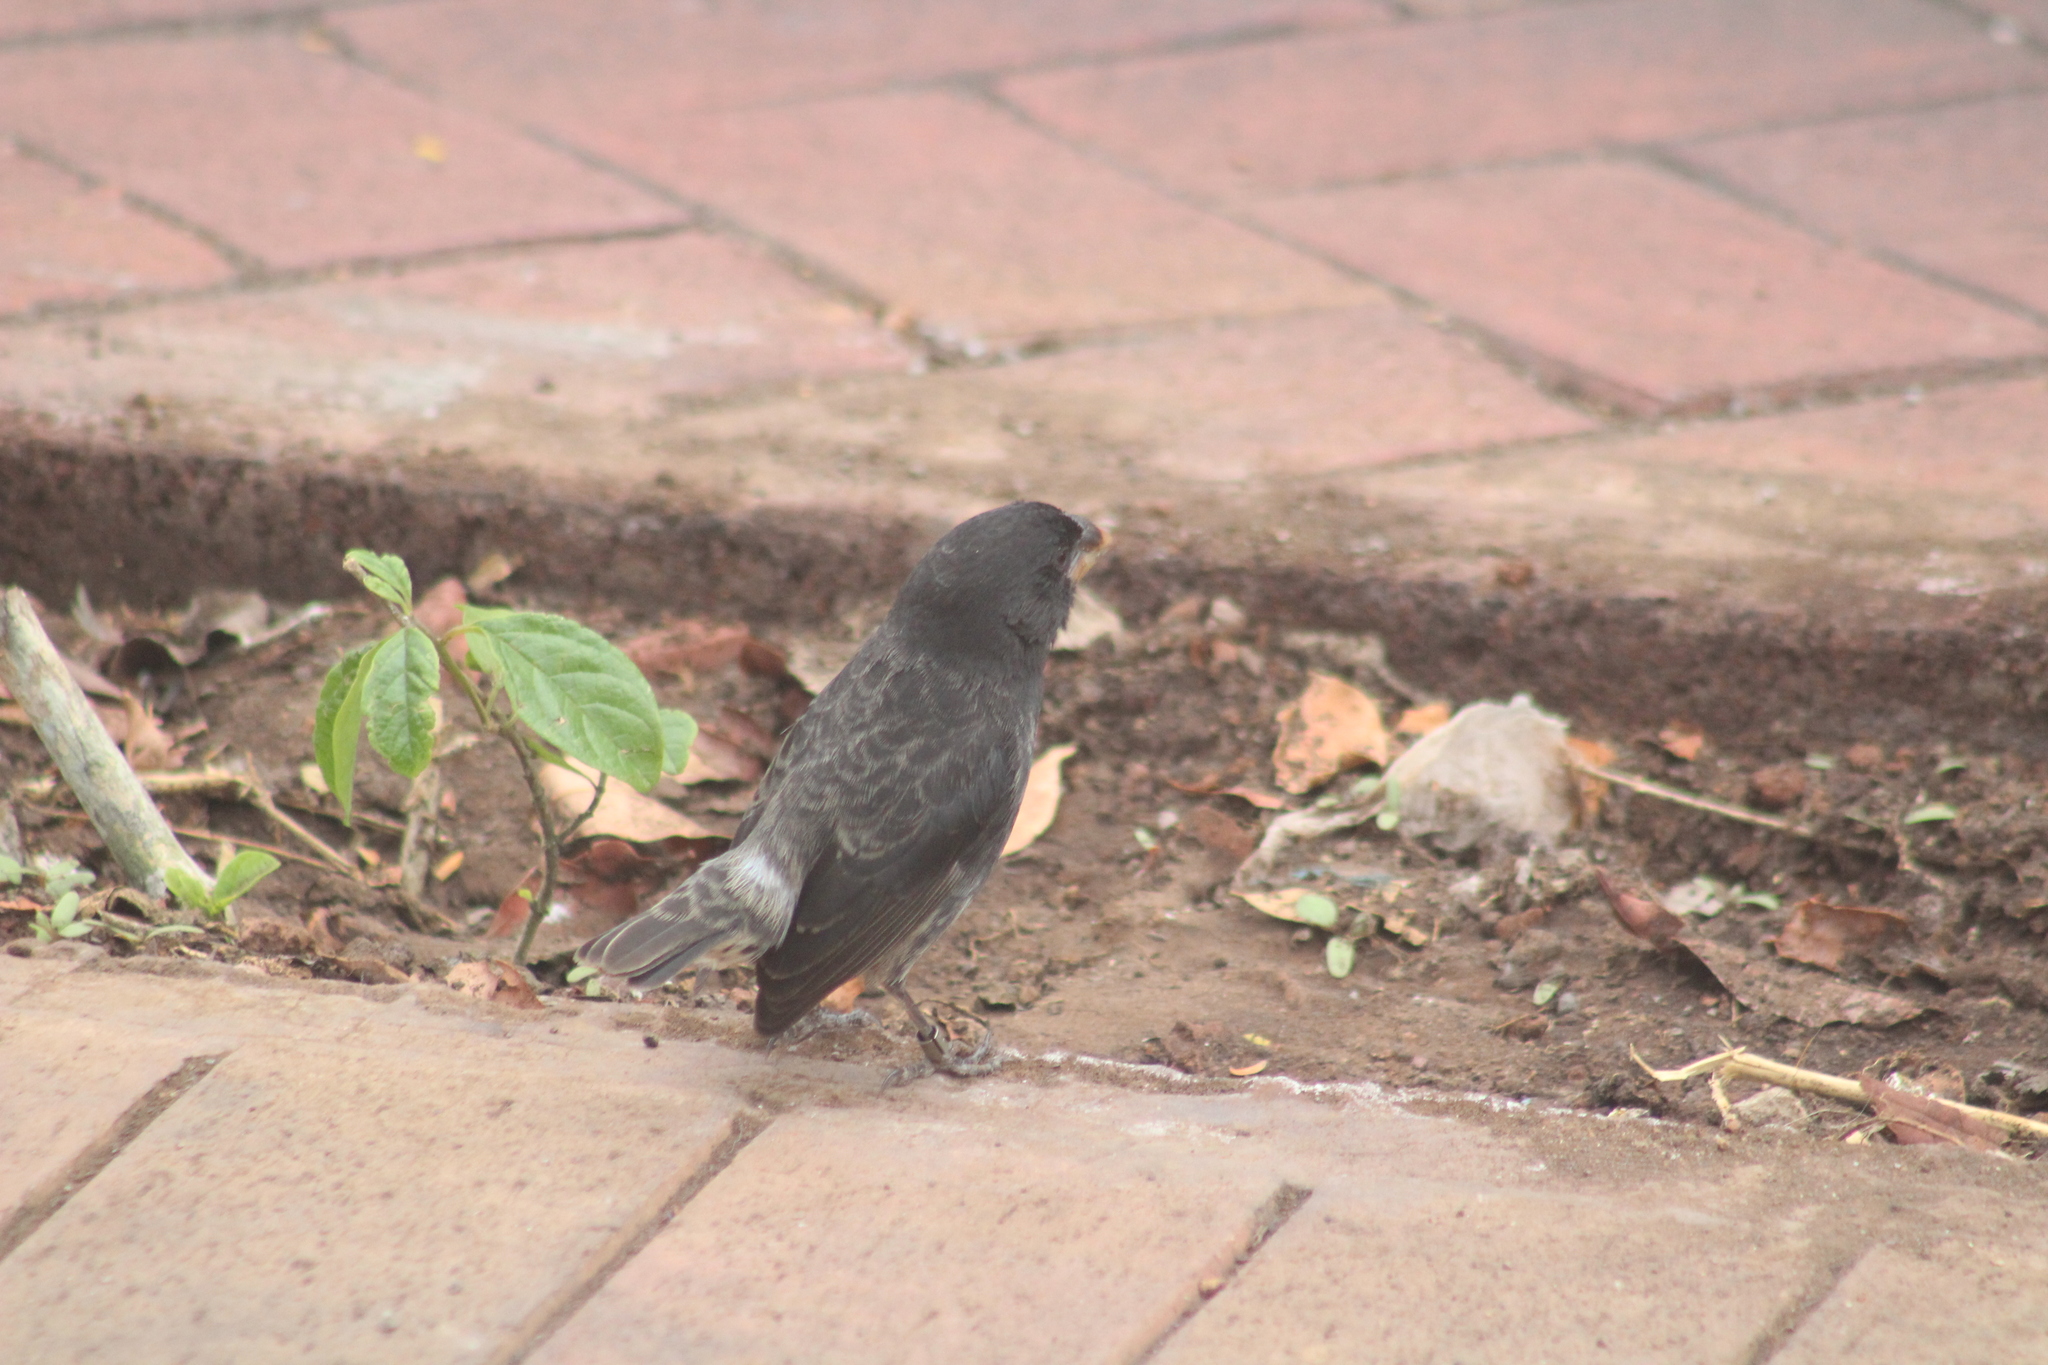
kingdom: Animalia
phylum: Chordata
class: Aves
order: Passeriformes
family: Thraupidae
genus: Geospiza
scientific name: Geospiza magnirostris
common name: Large ground-finch
